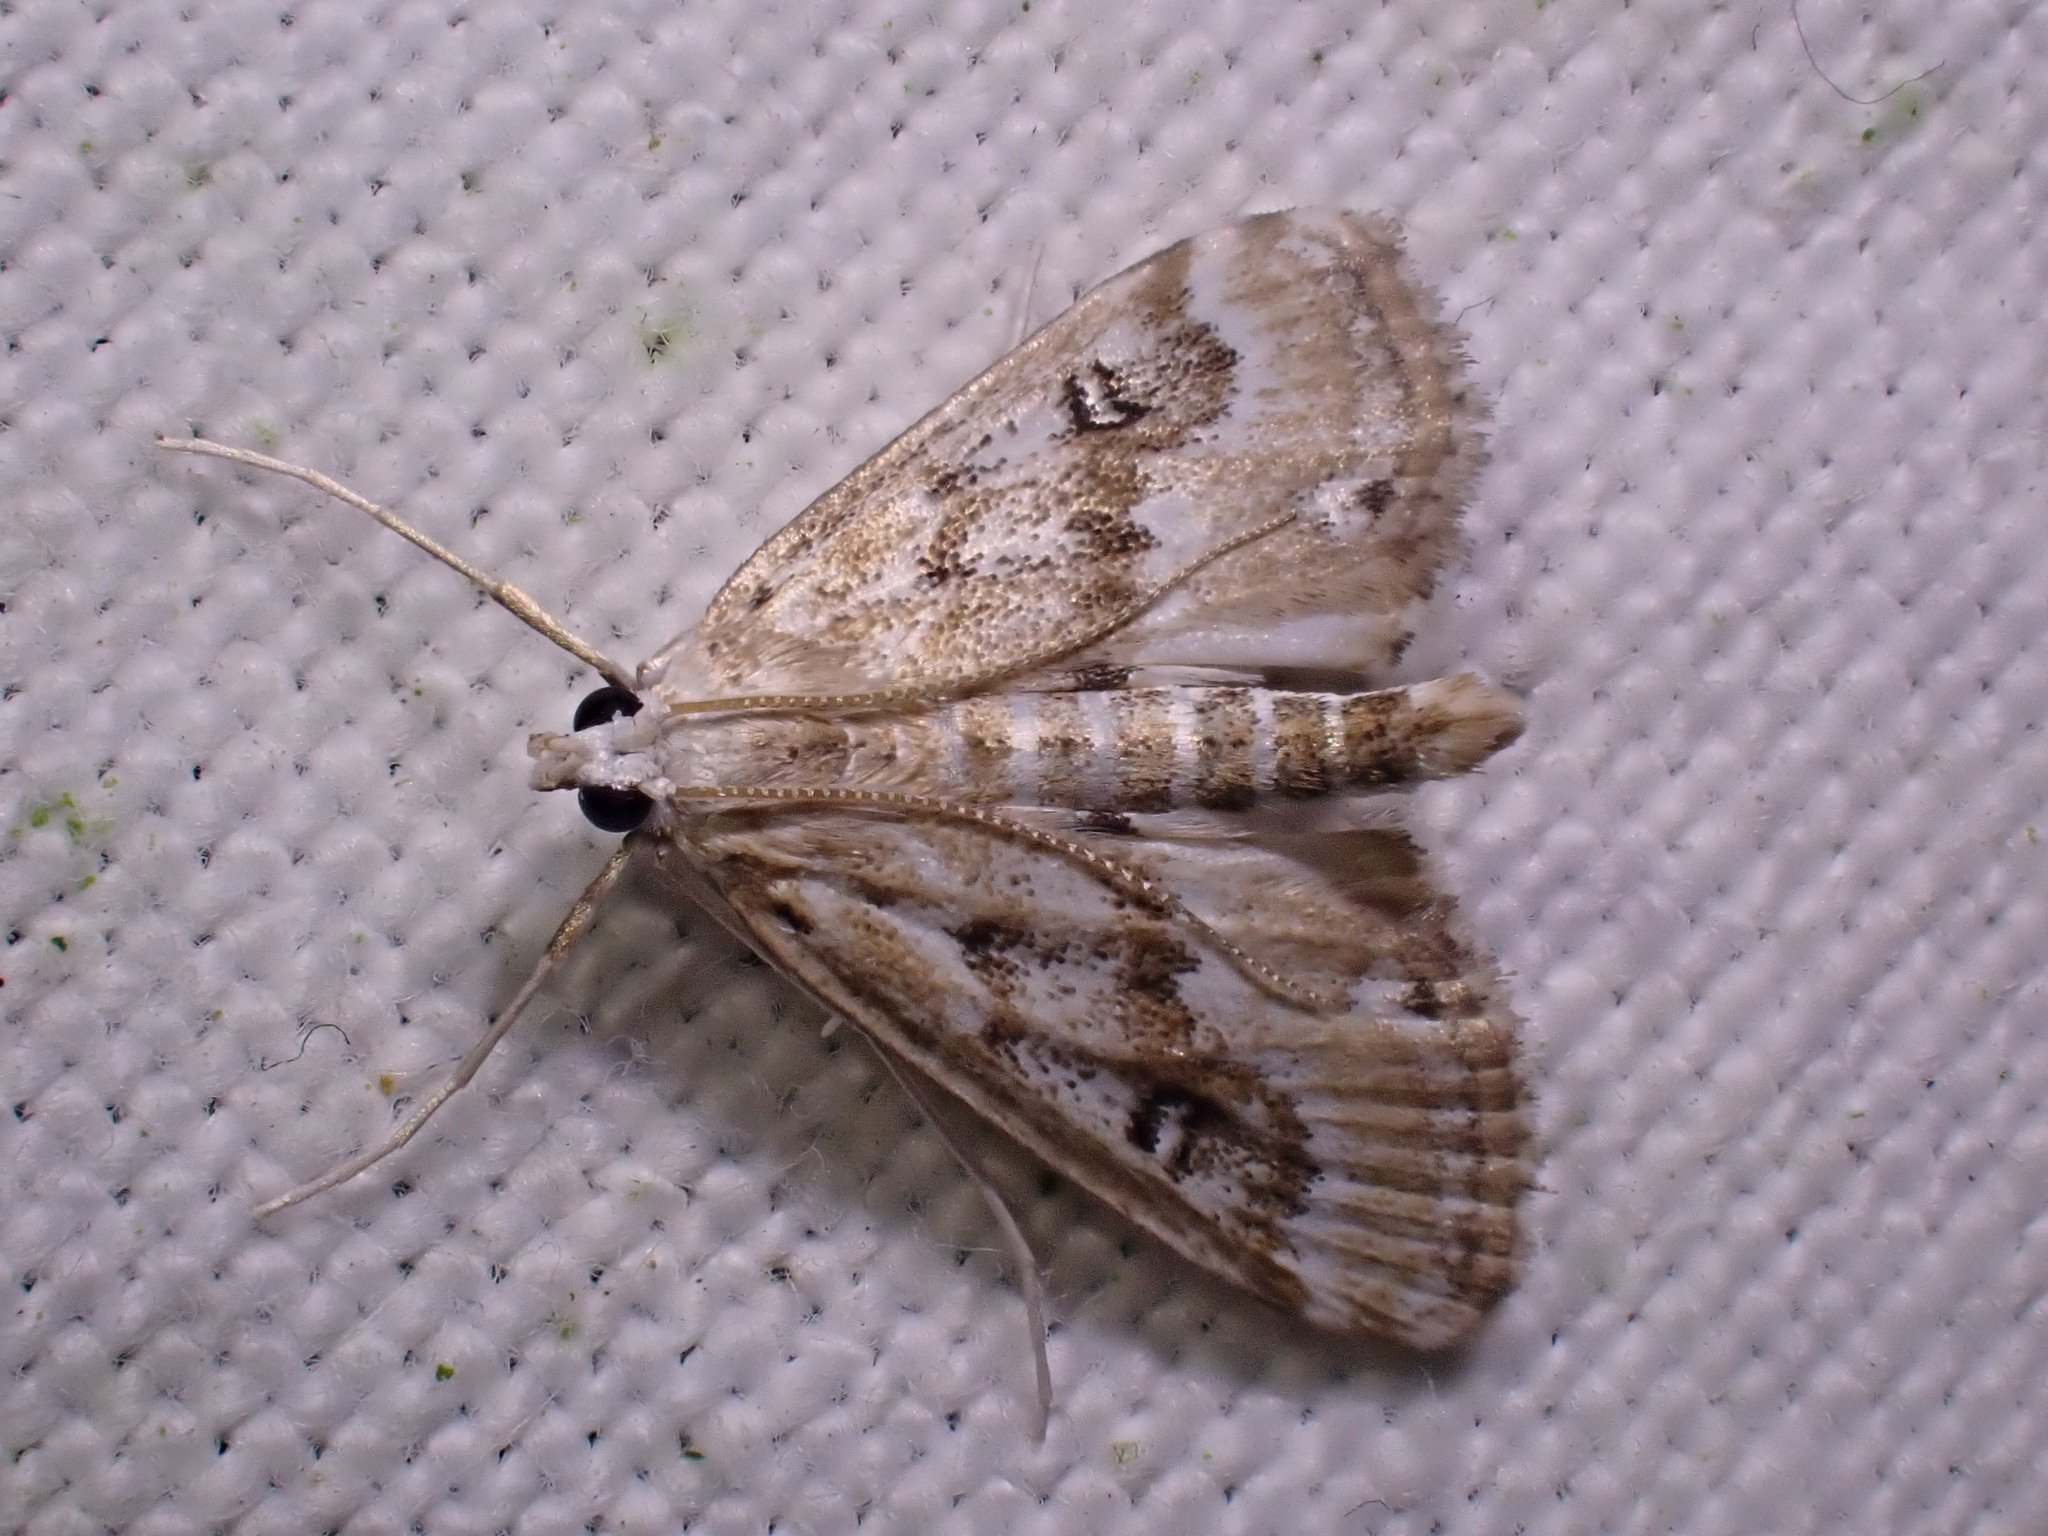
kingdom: Animalia
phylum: Arthropoda
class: Insecta
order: Lepidoptera
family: Crambidae
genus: Parapoynx
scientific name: Parapoynx stratiotata
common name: Ringed china-mark
